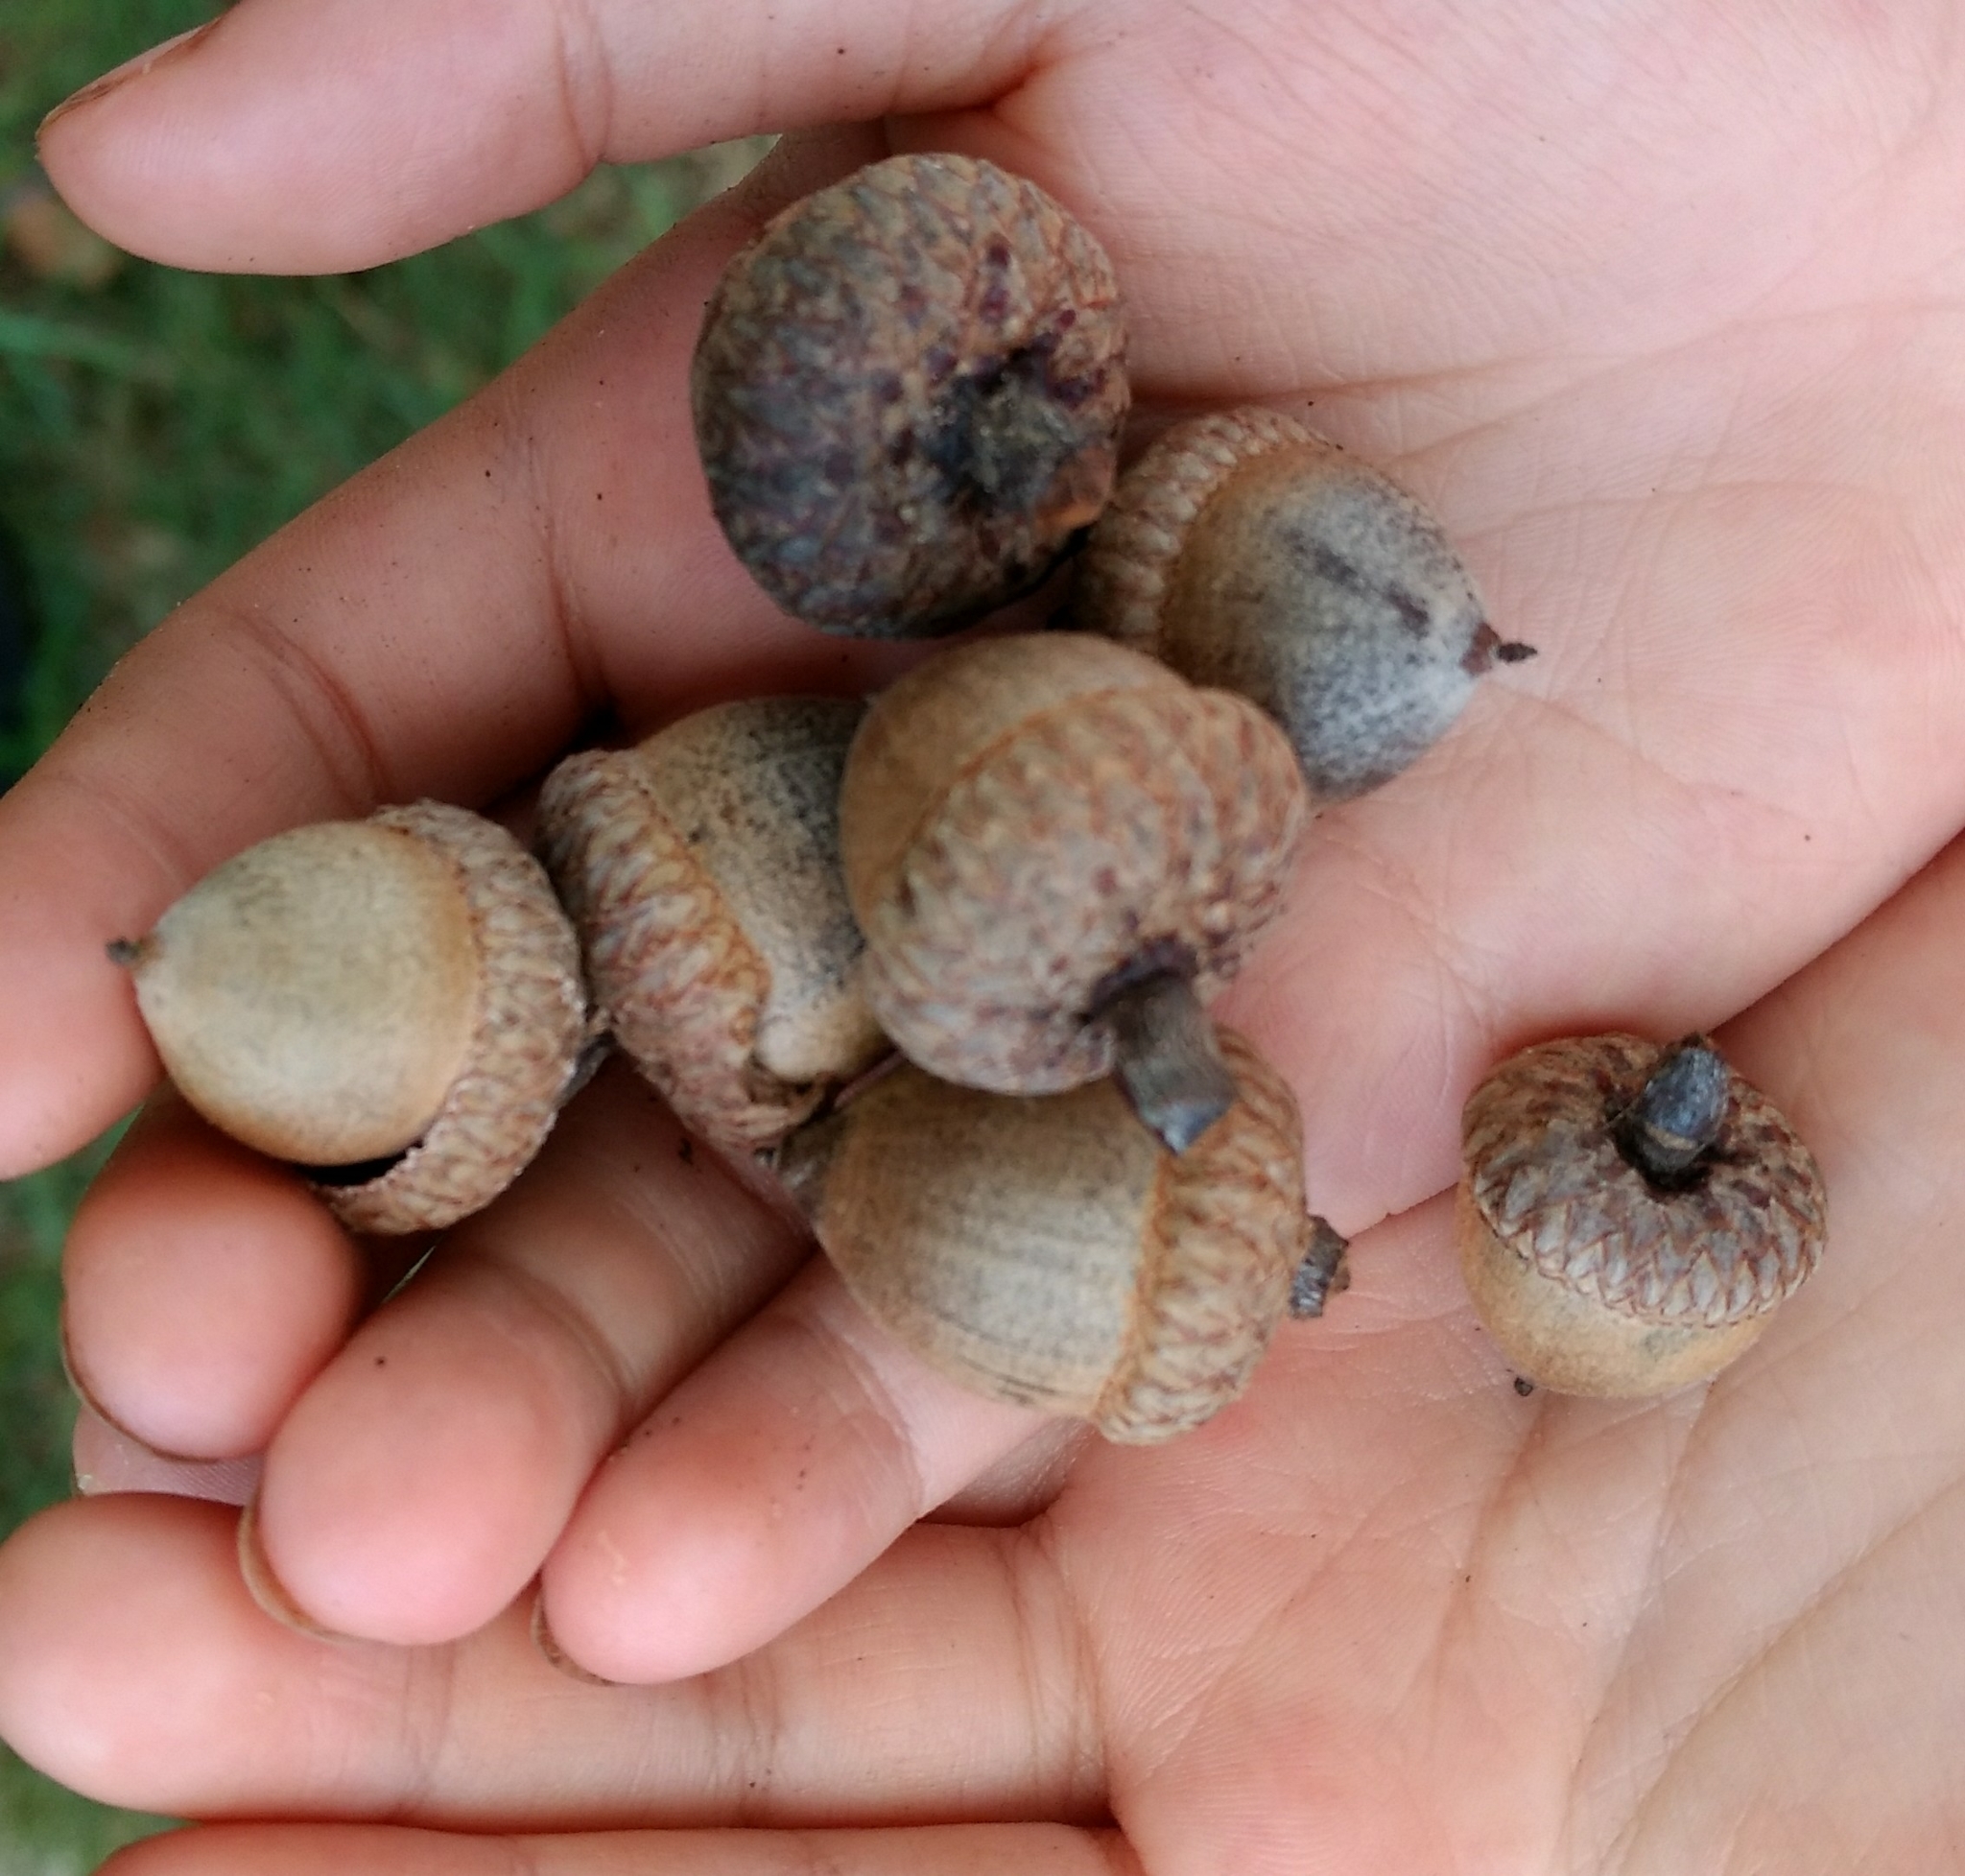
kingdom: Plantae
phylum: Tracheophyta
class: Magnoliopsida
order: Fagales
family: Fagaceae
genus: Quercus
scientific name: Quercus rubra
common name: Red oak
